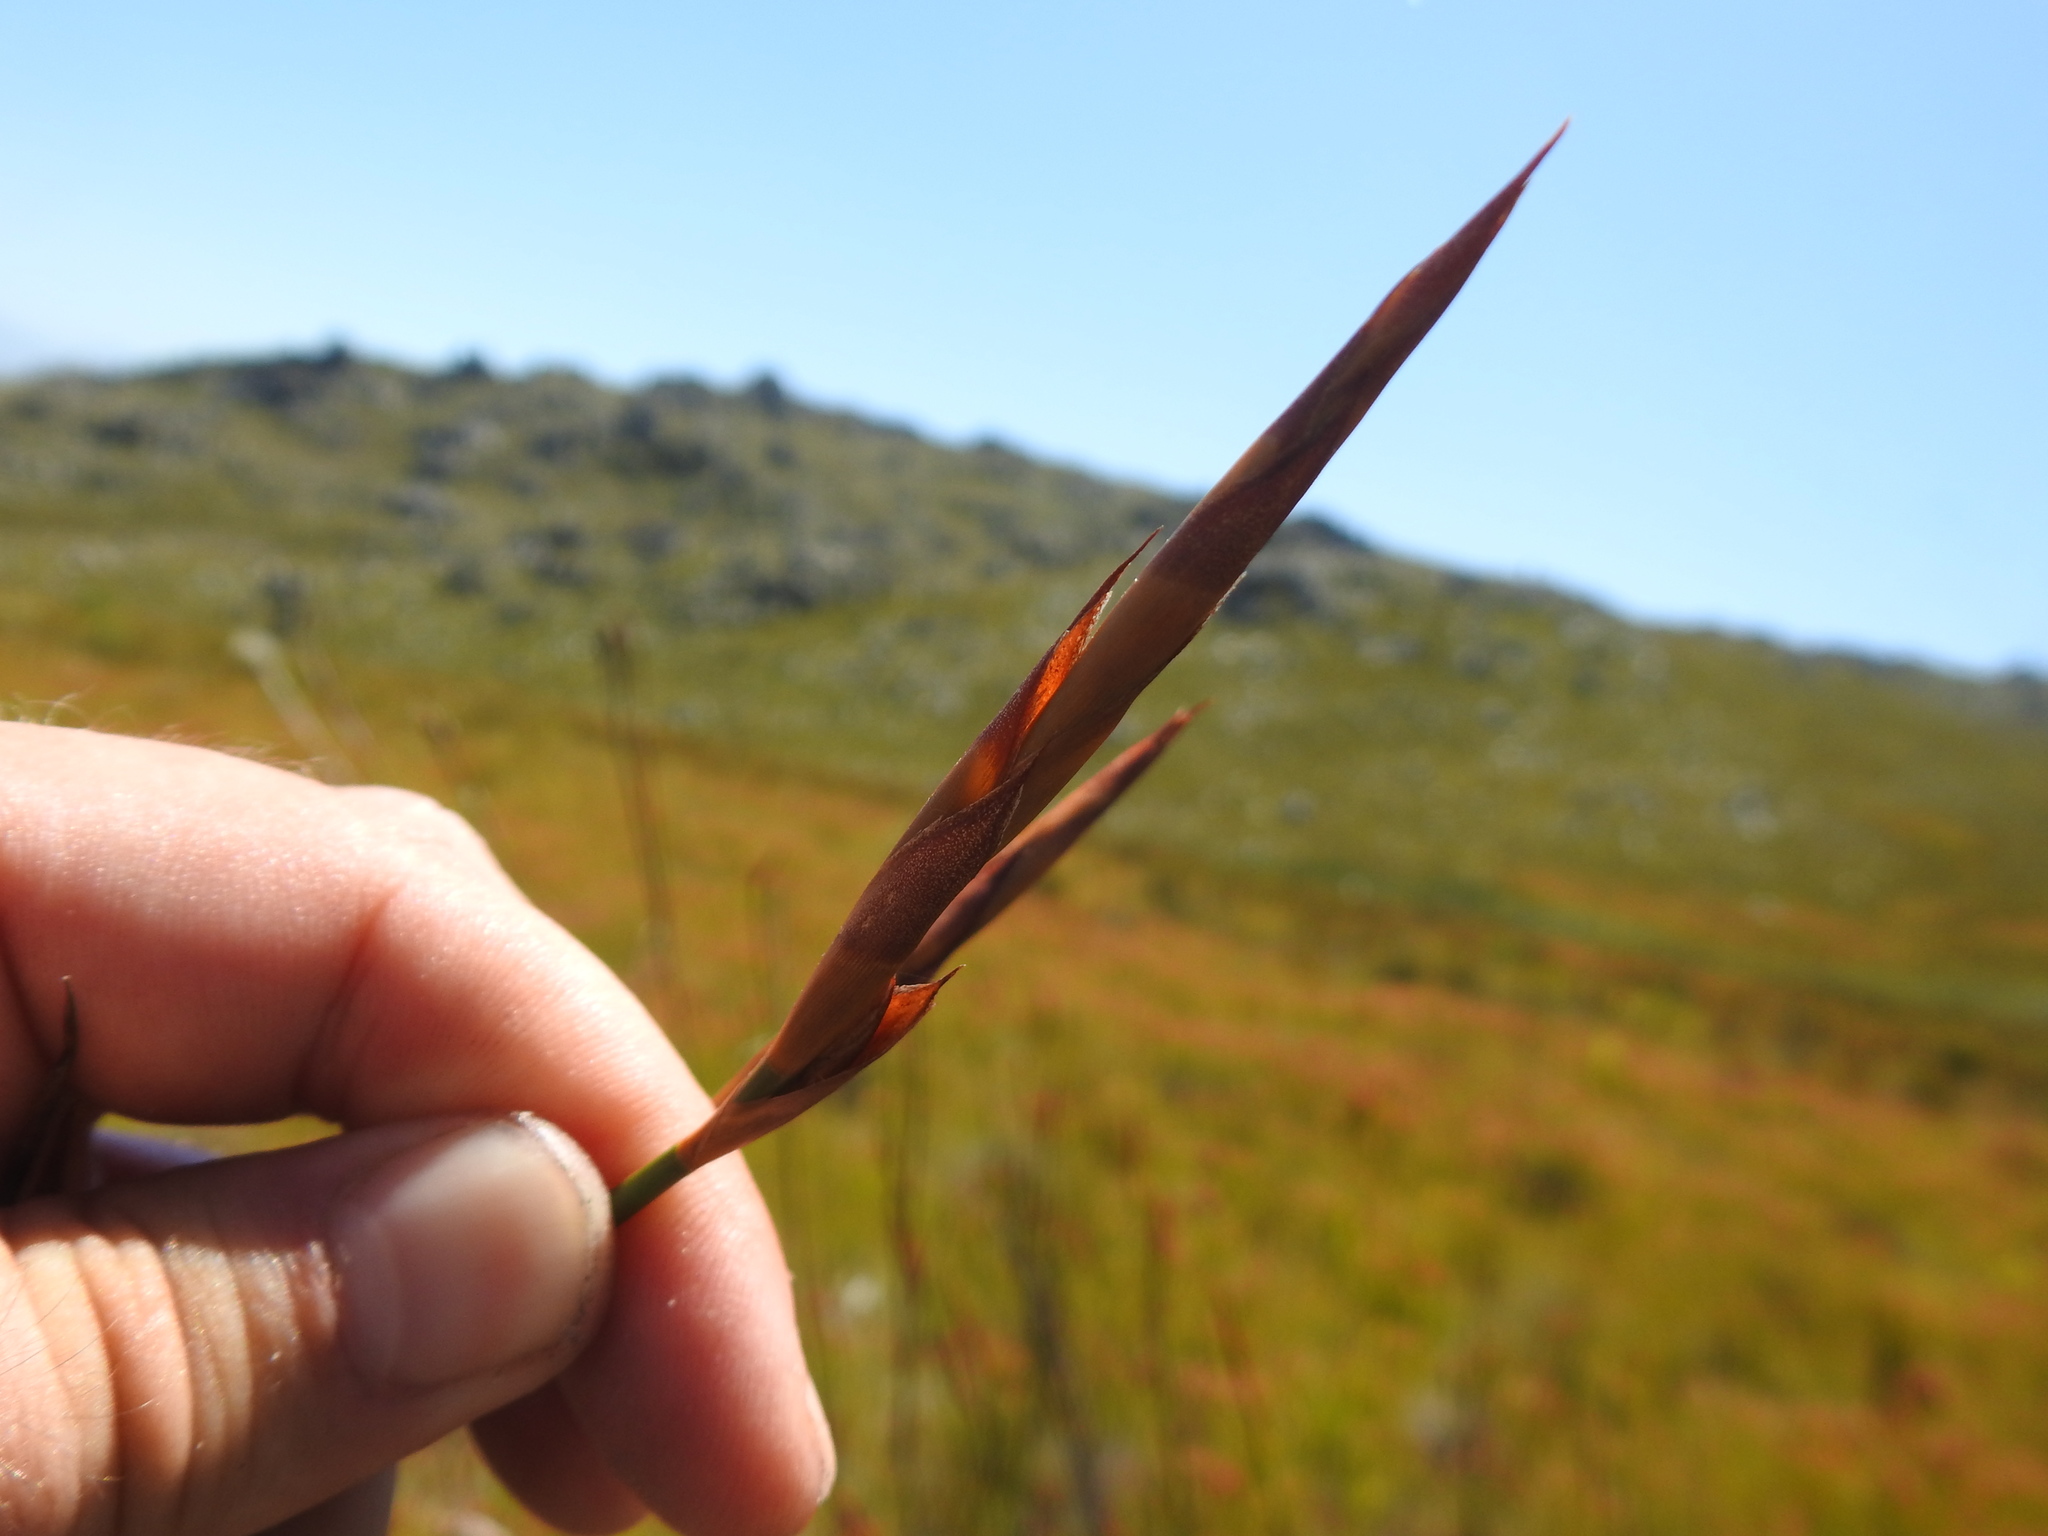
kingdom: Plantae
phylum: Tracheophyta
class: Liliopsida
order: Poales
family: Restionaceae
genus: Restio
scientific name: Restio dispar
